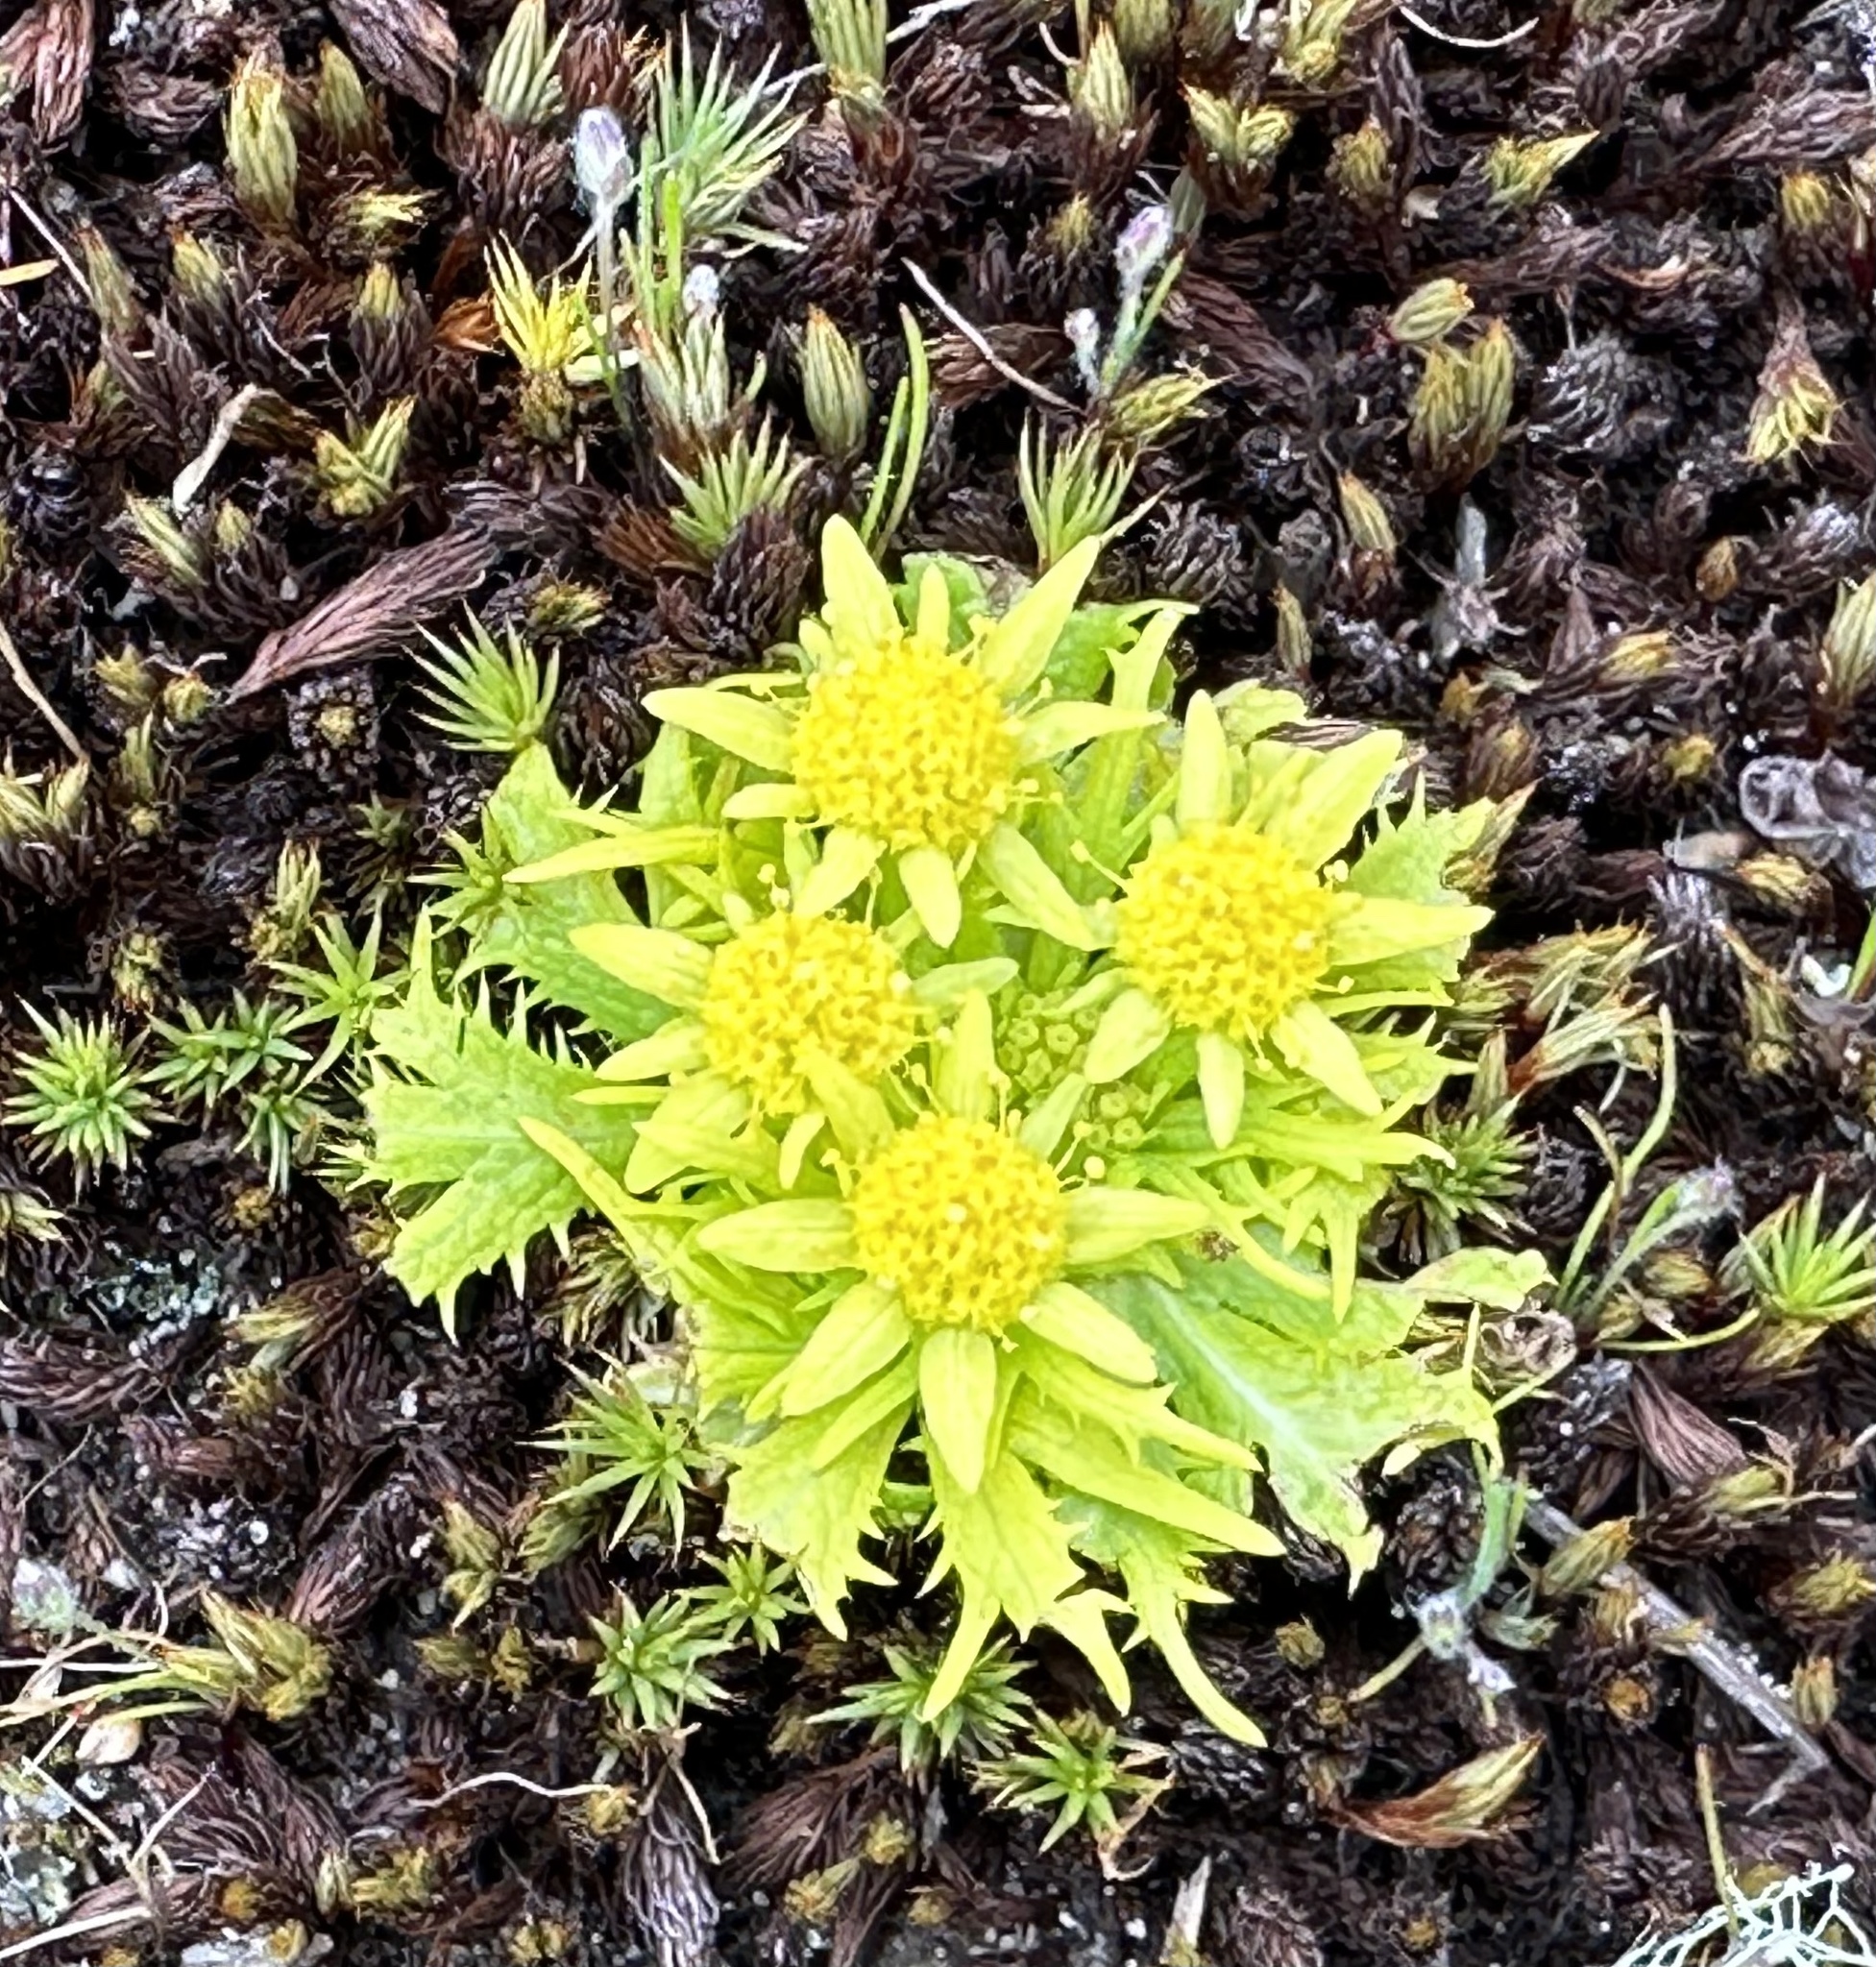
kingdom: Plantae
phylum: Tracheophyta
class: Magnoliopsida
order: Apiales
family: Apiaceae
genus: Sanicula
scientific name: Sanicula arctopoides
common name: Footsteps-of-spring
